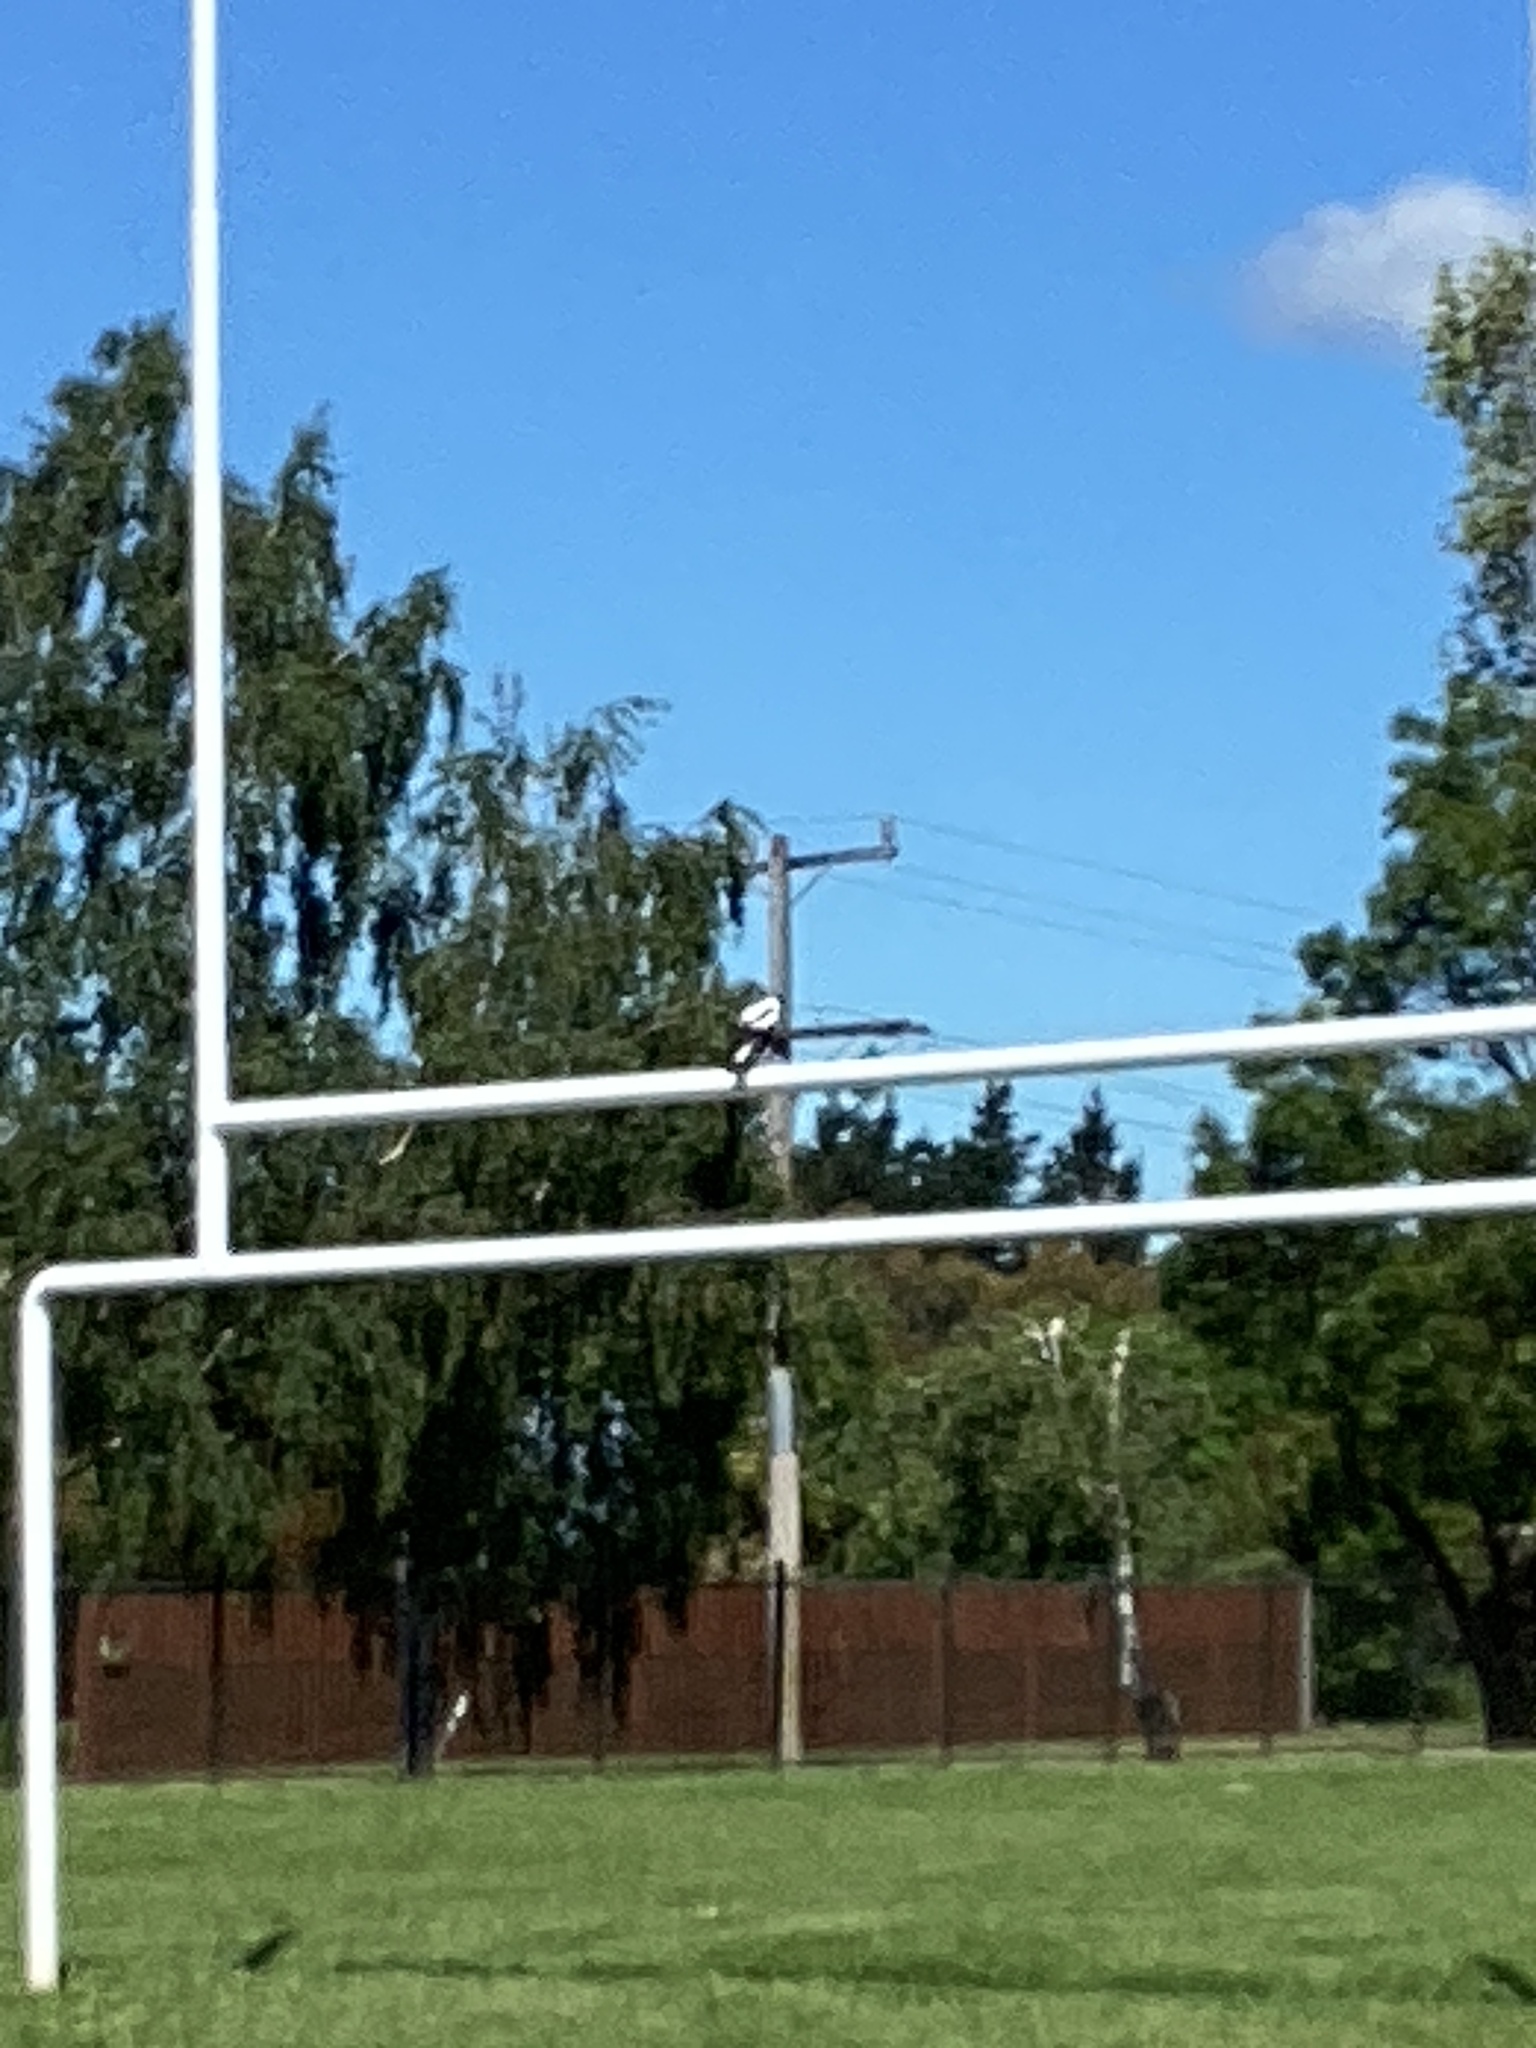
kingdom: Animalia
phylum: Chordata
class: Aves
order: Passeriformes
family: Cracticidae
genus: Gymnorhina
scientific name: Gymnorhina tibicen
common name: Australian magpie
